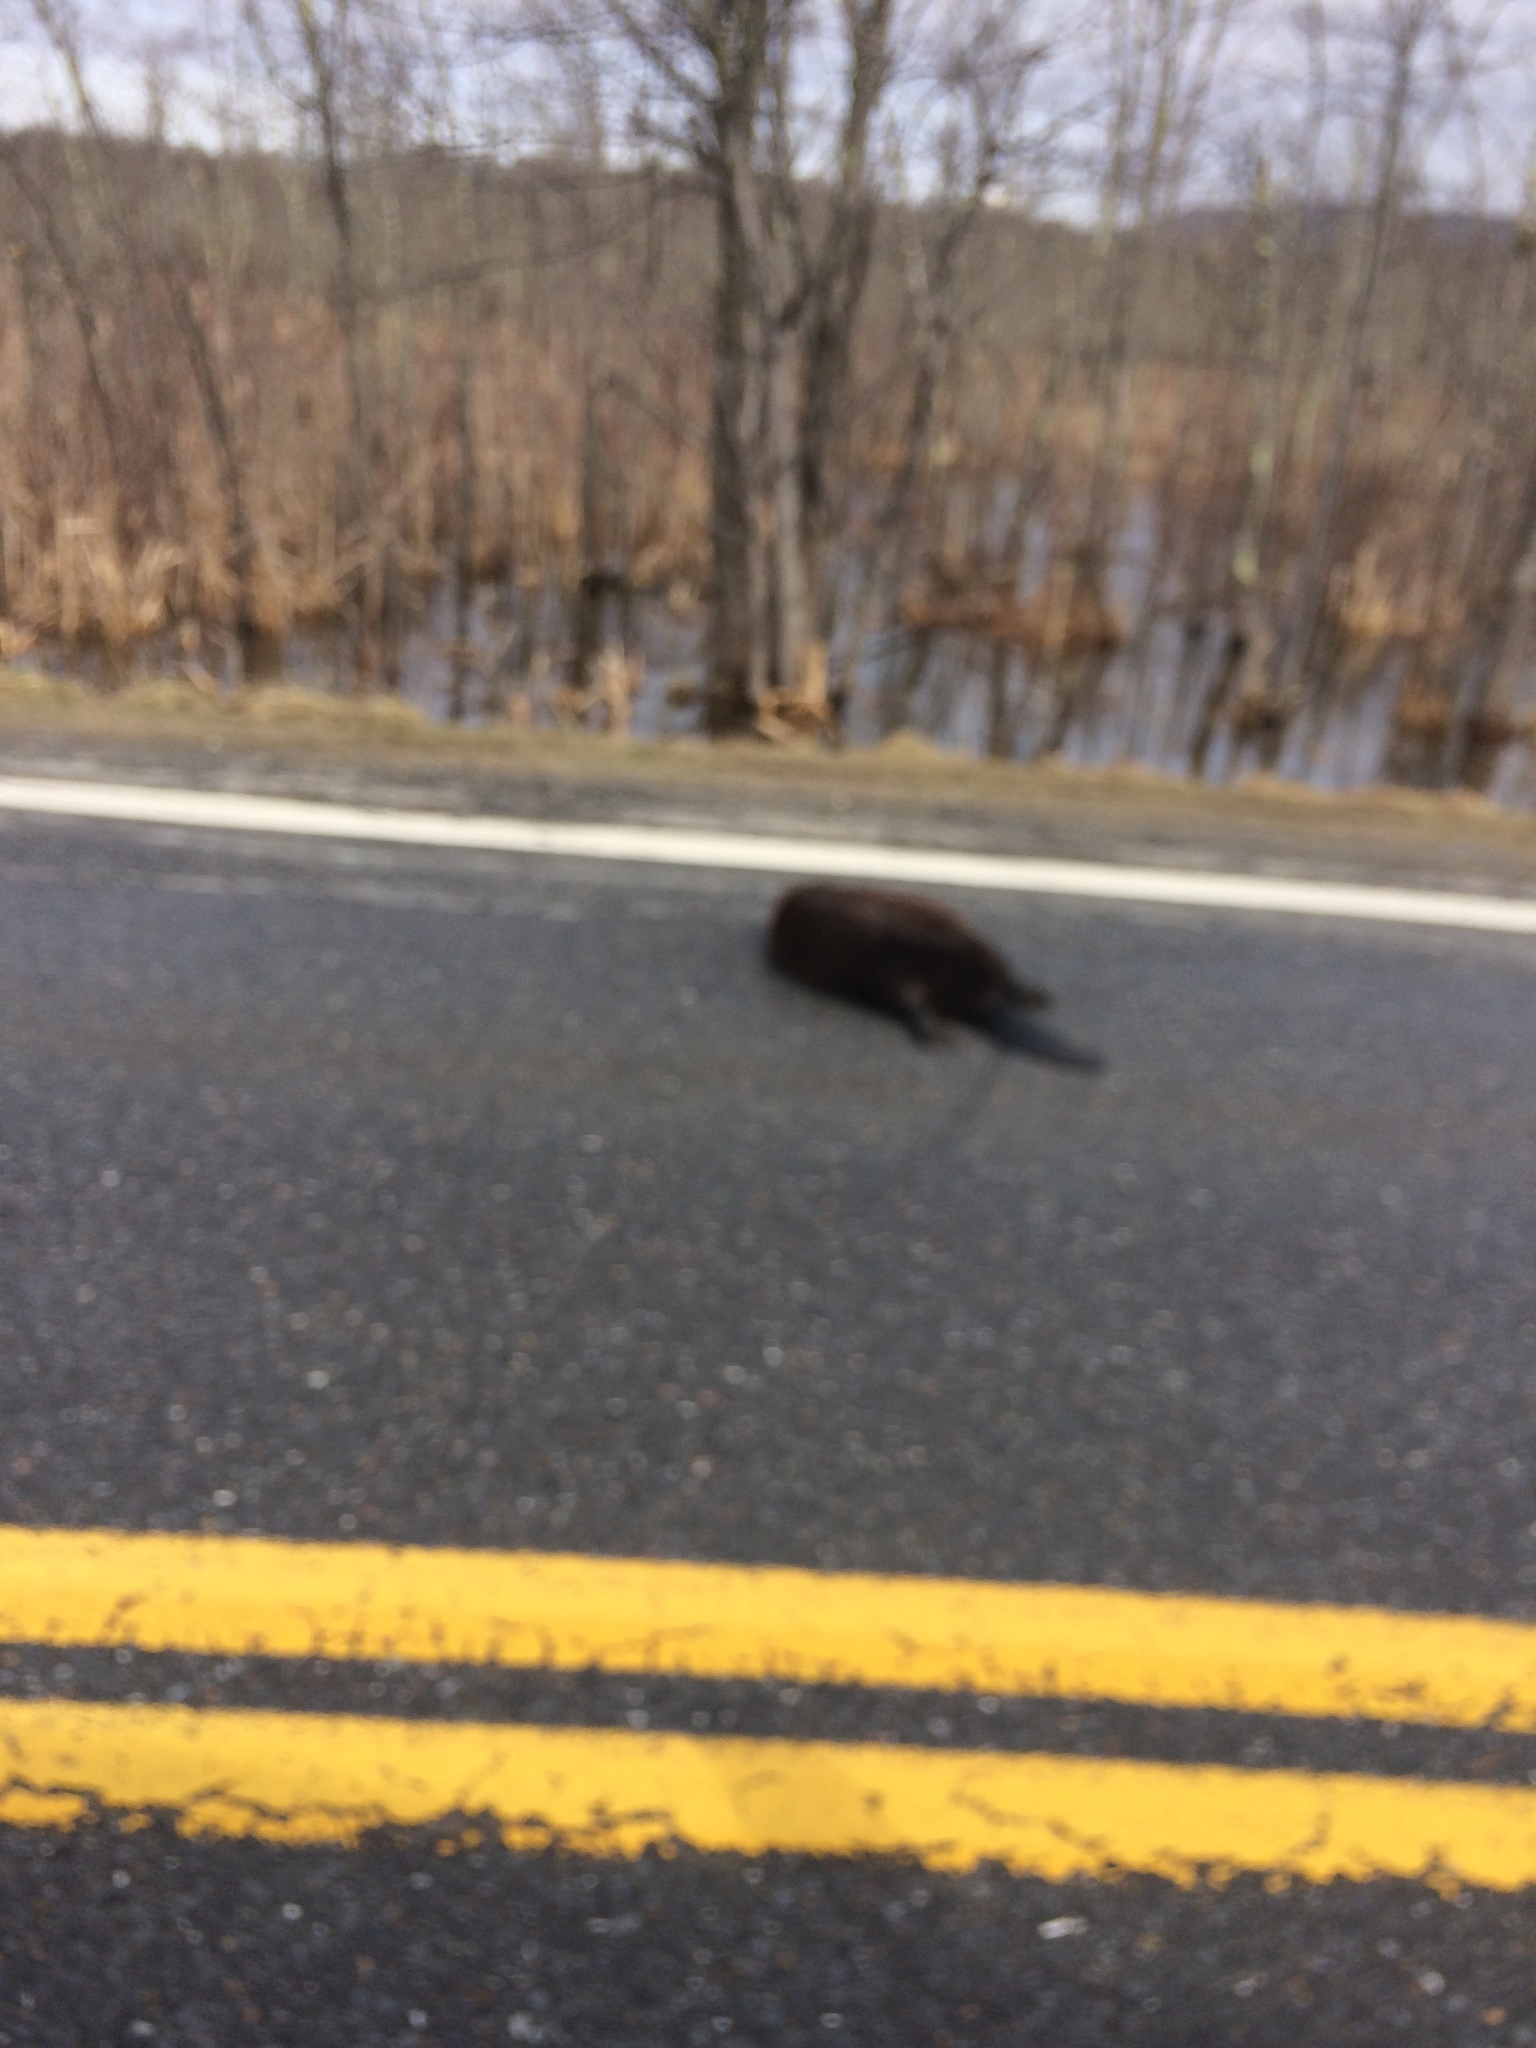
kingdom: Animalia
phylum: Chordata
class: Mammalia
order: Rodentia
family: Castoridae
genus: Castor
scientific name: Castor canadensis
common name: American beaver
